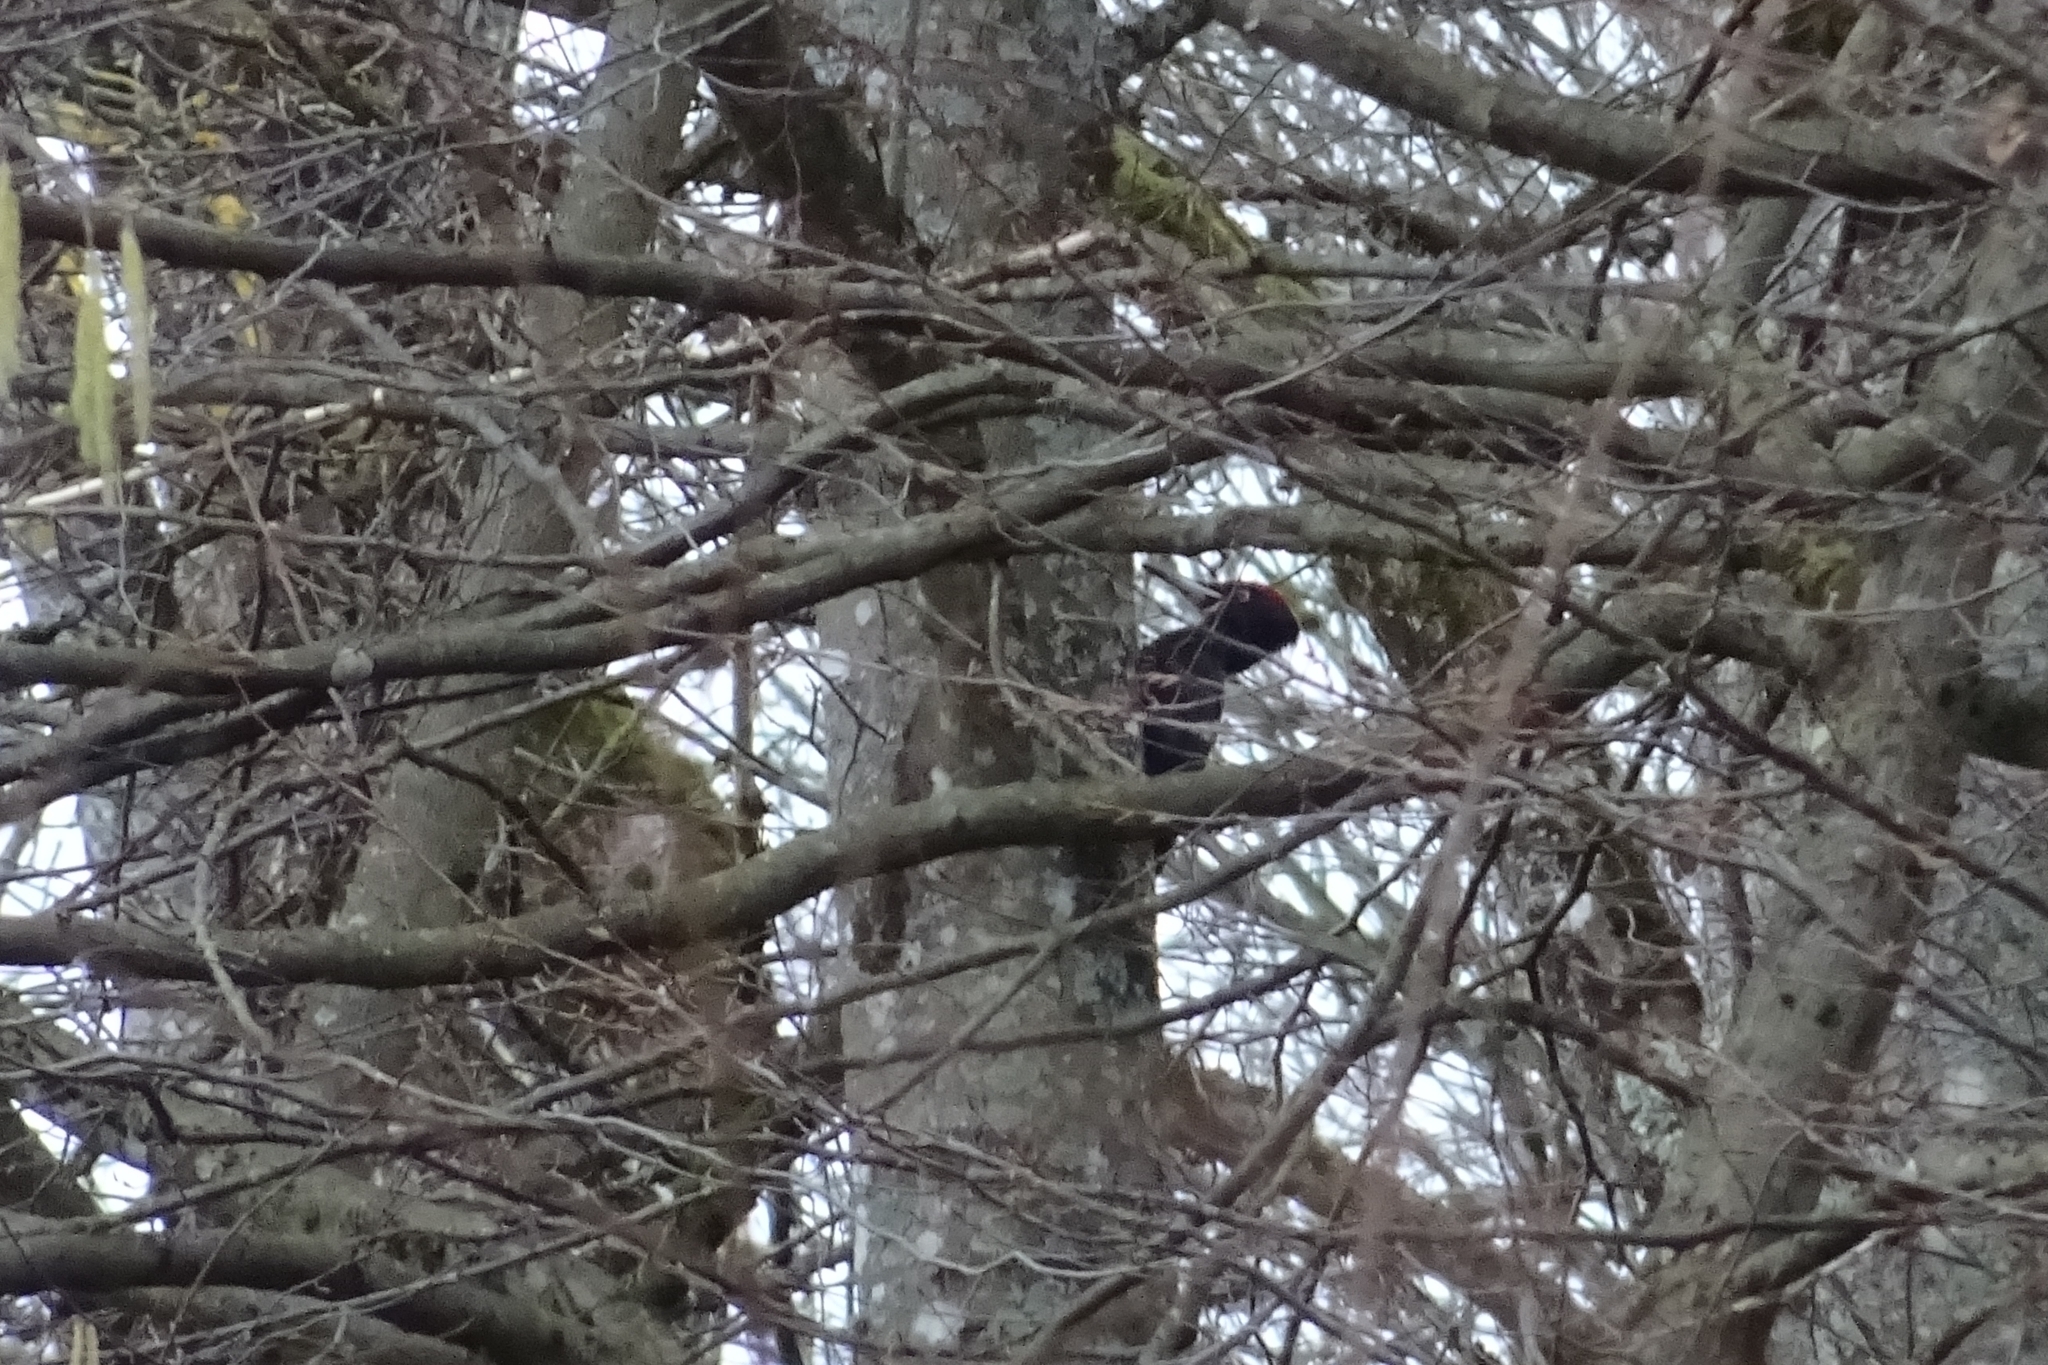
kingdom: Animalia
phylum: Chordata
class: Aves
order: Piciformes
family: Picidae
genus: Dryocopus
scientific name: Dryocopus martius
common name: Black woodpecker
